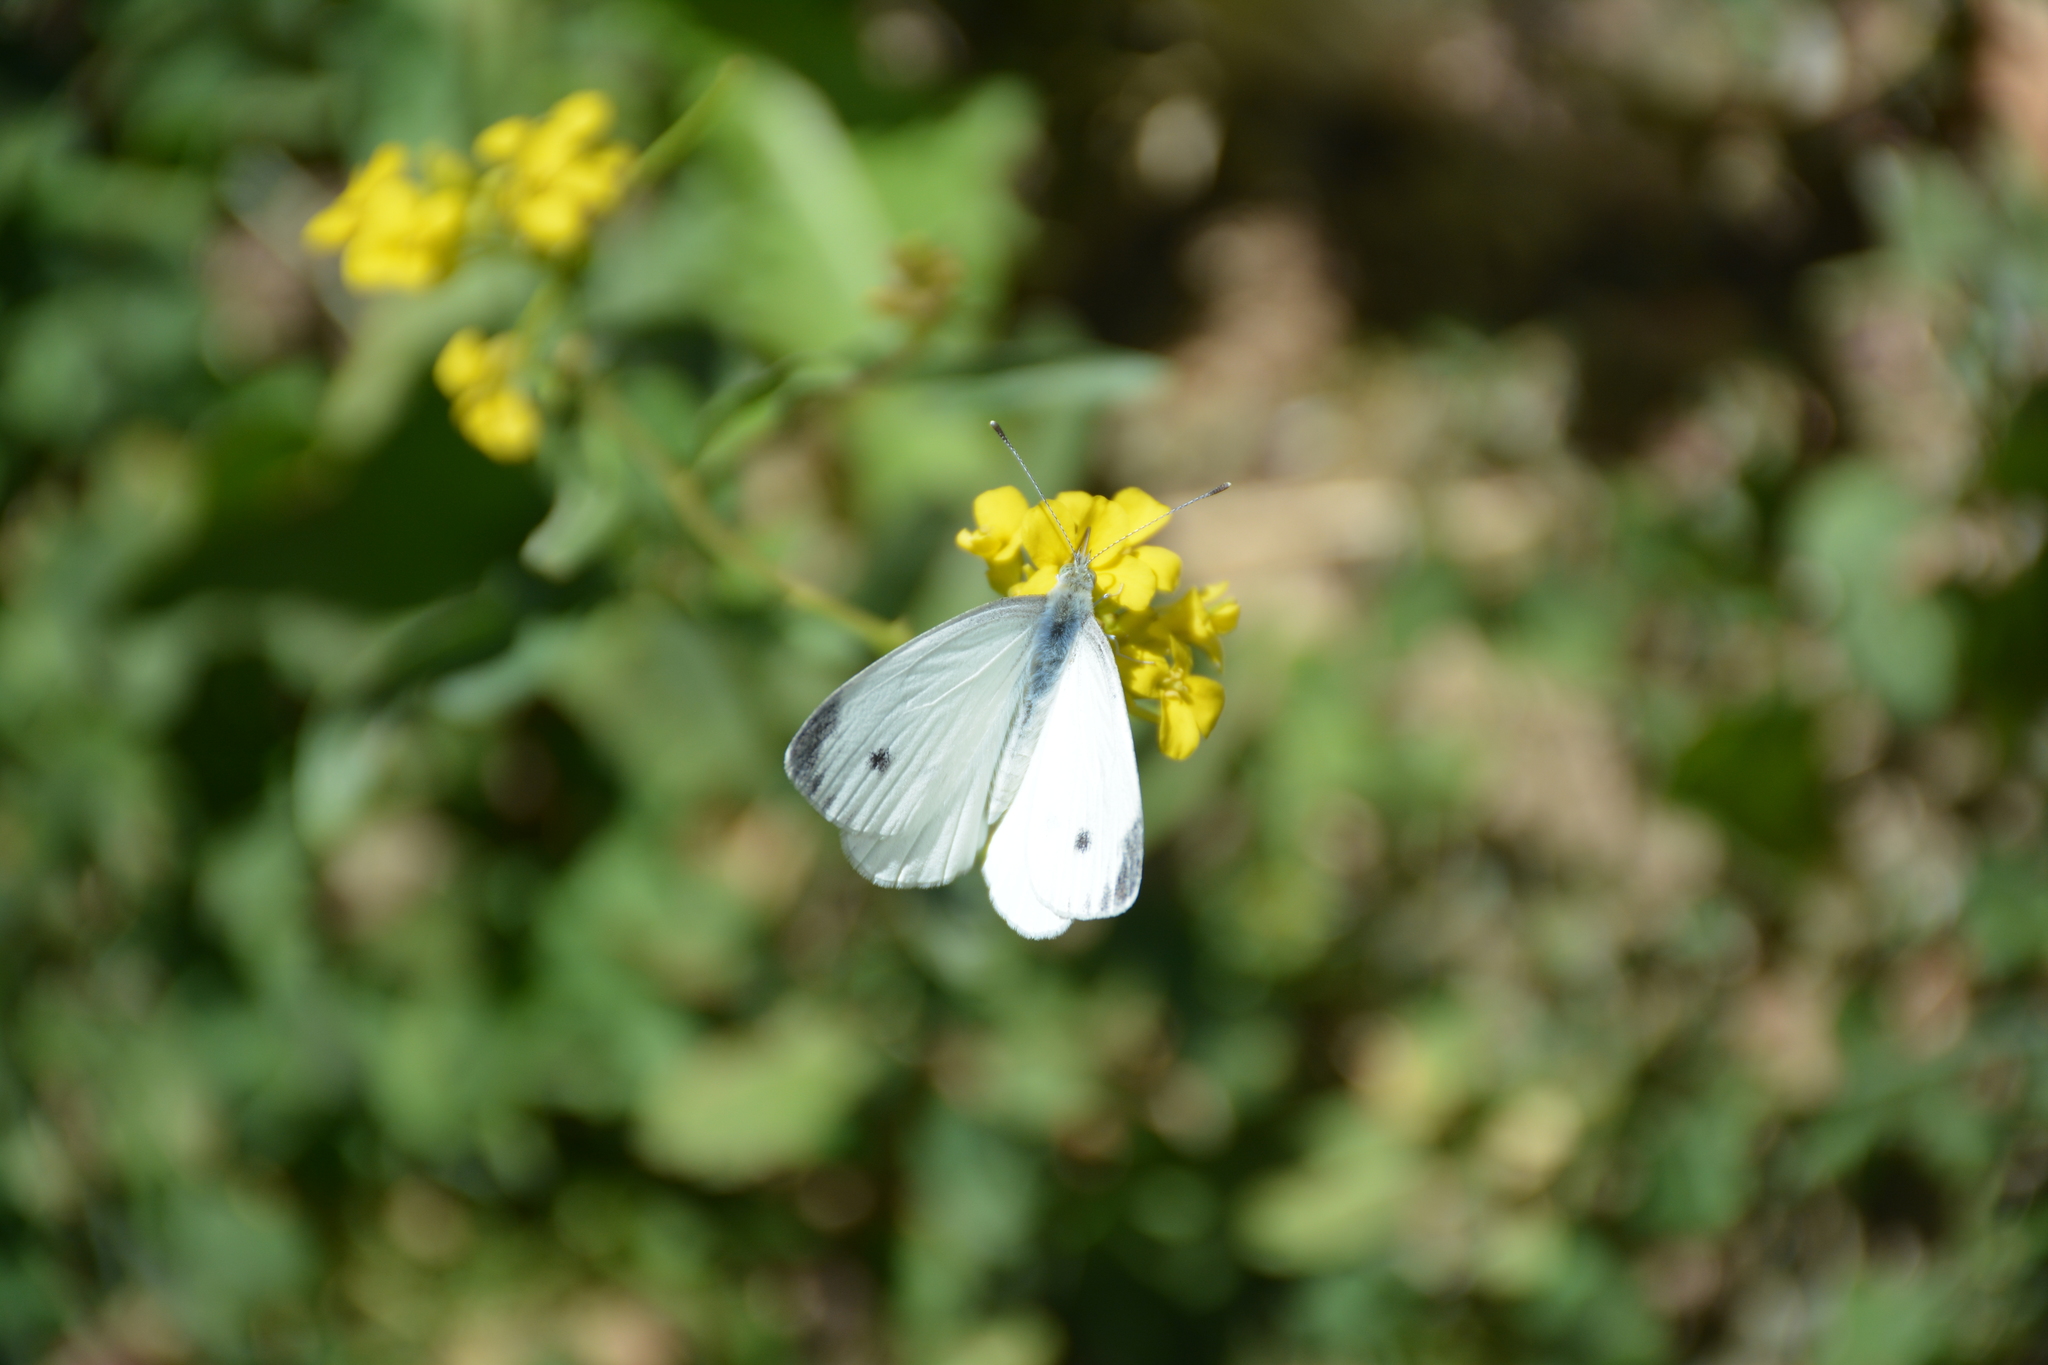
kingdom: Animalia
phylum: Arthropoda
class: Insecta
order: Lepidoptera
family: Pieridae
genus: Pieris
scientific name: Pieris pseudorapae
